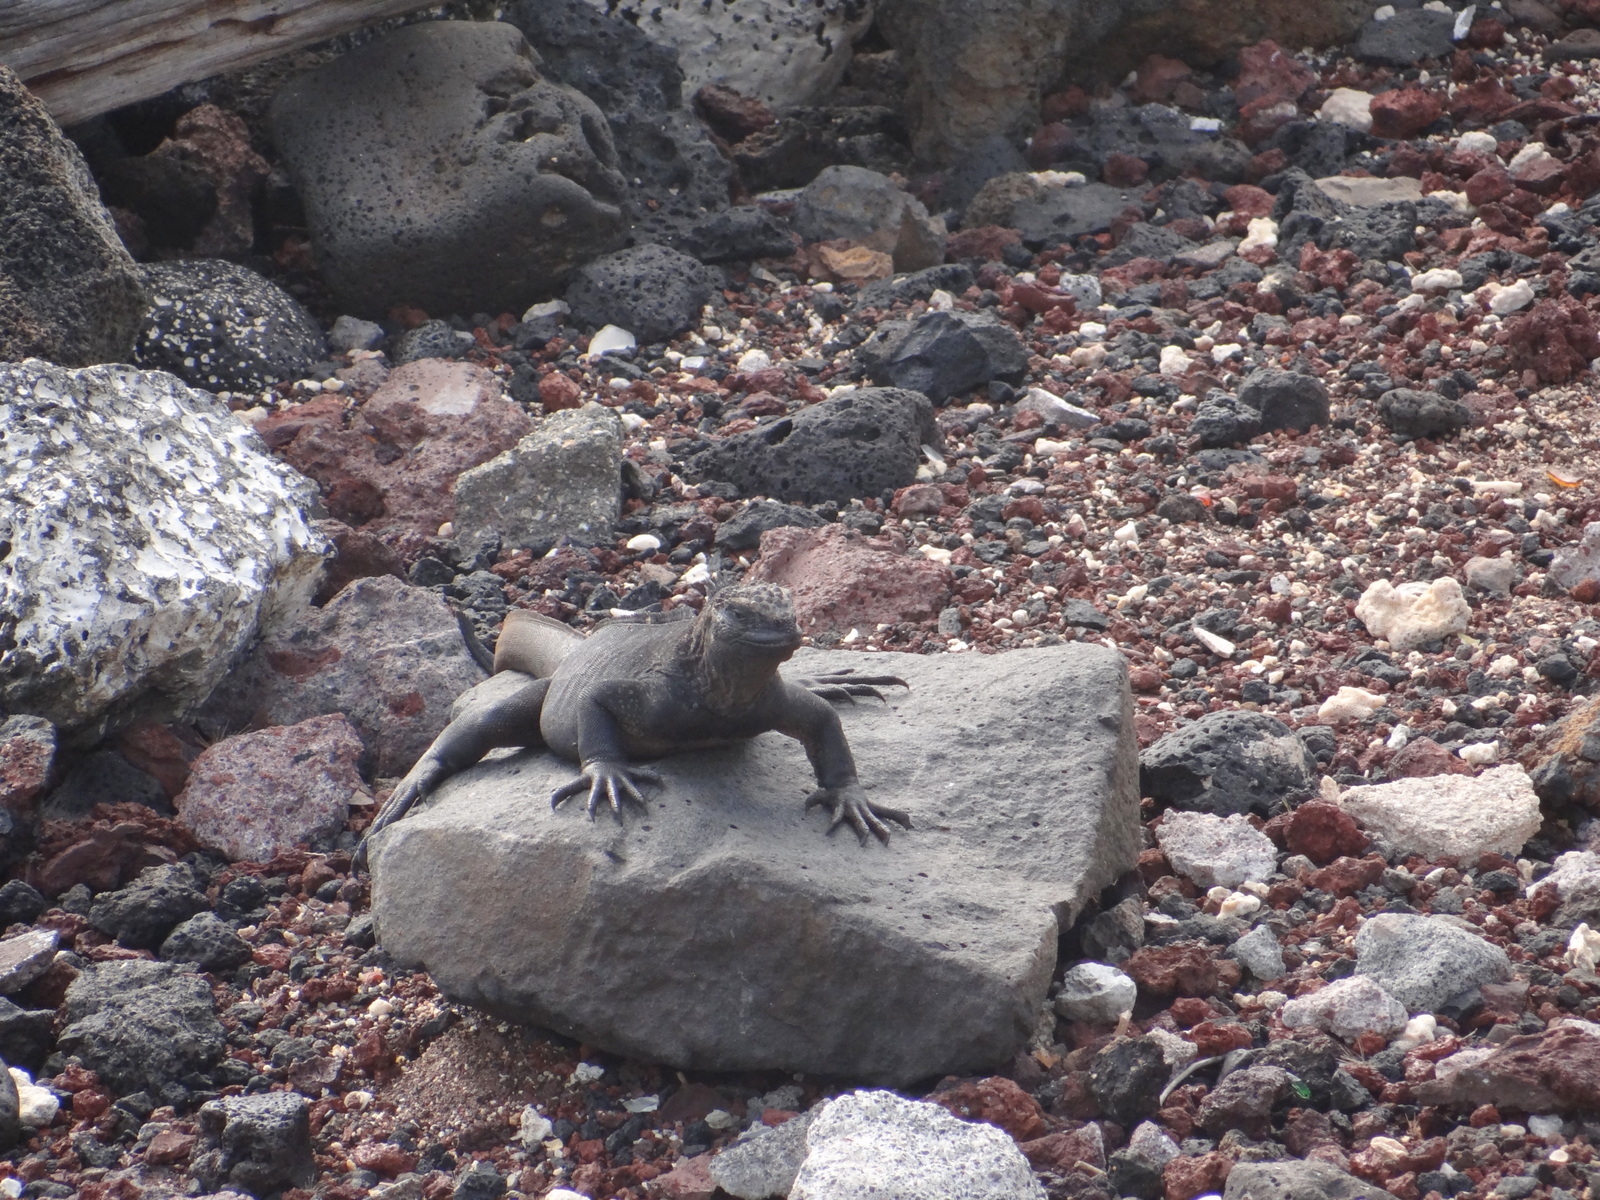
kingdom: Animalia
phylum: Chordata
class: Squamata
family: Iguanidae
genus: Amblyrhynchus
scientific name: Amblyrhynchus cristatus
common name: Marine iguana
